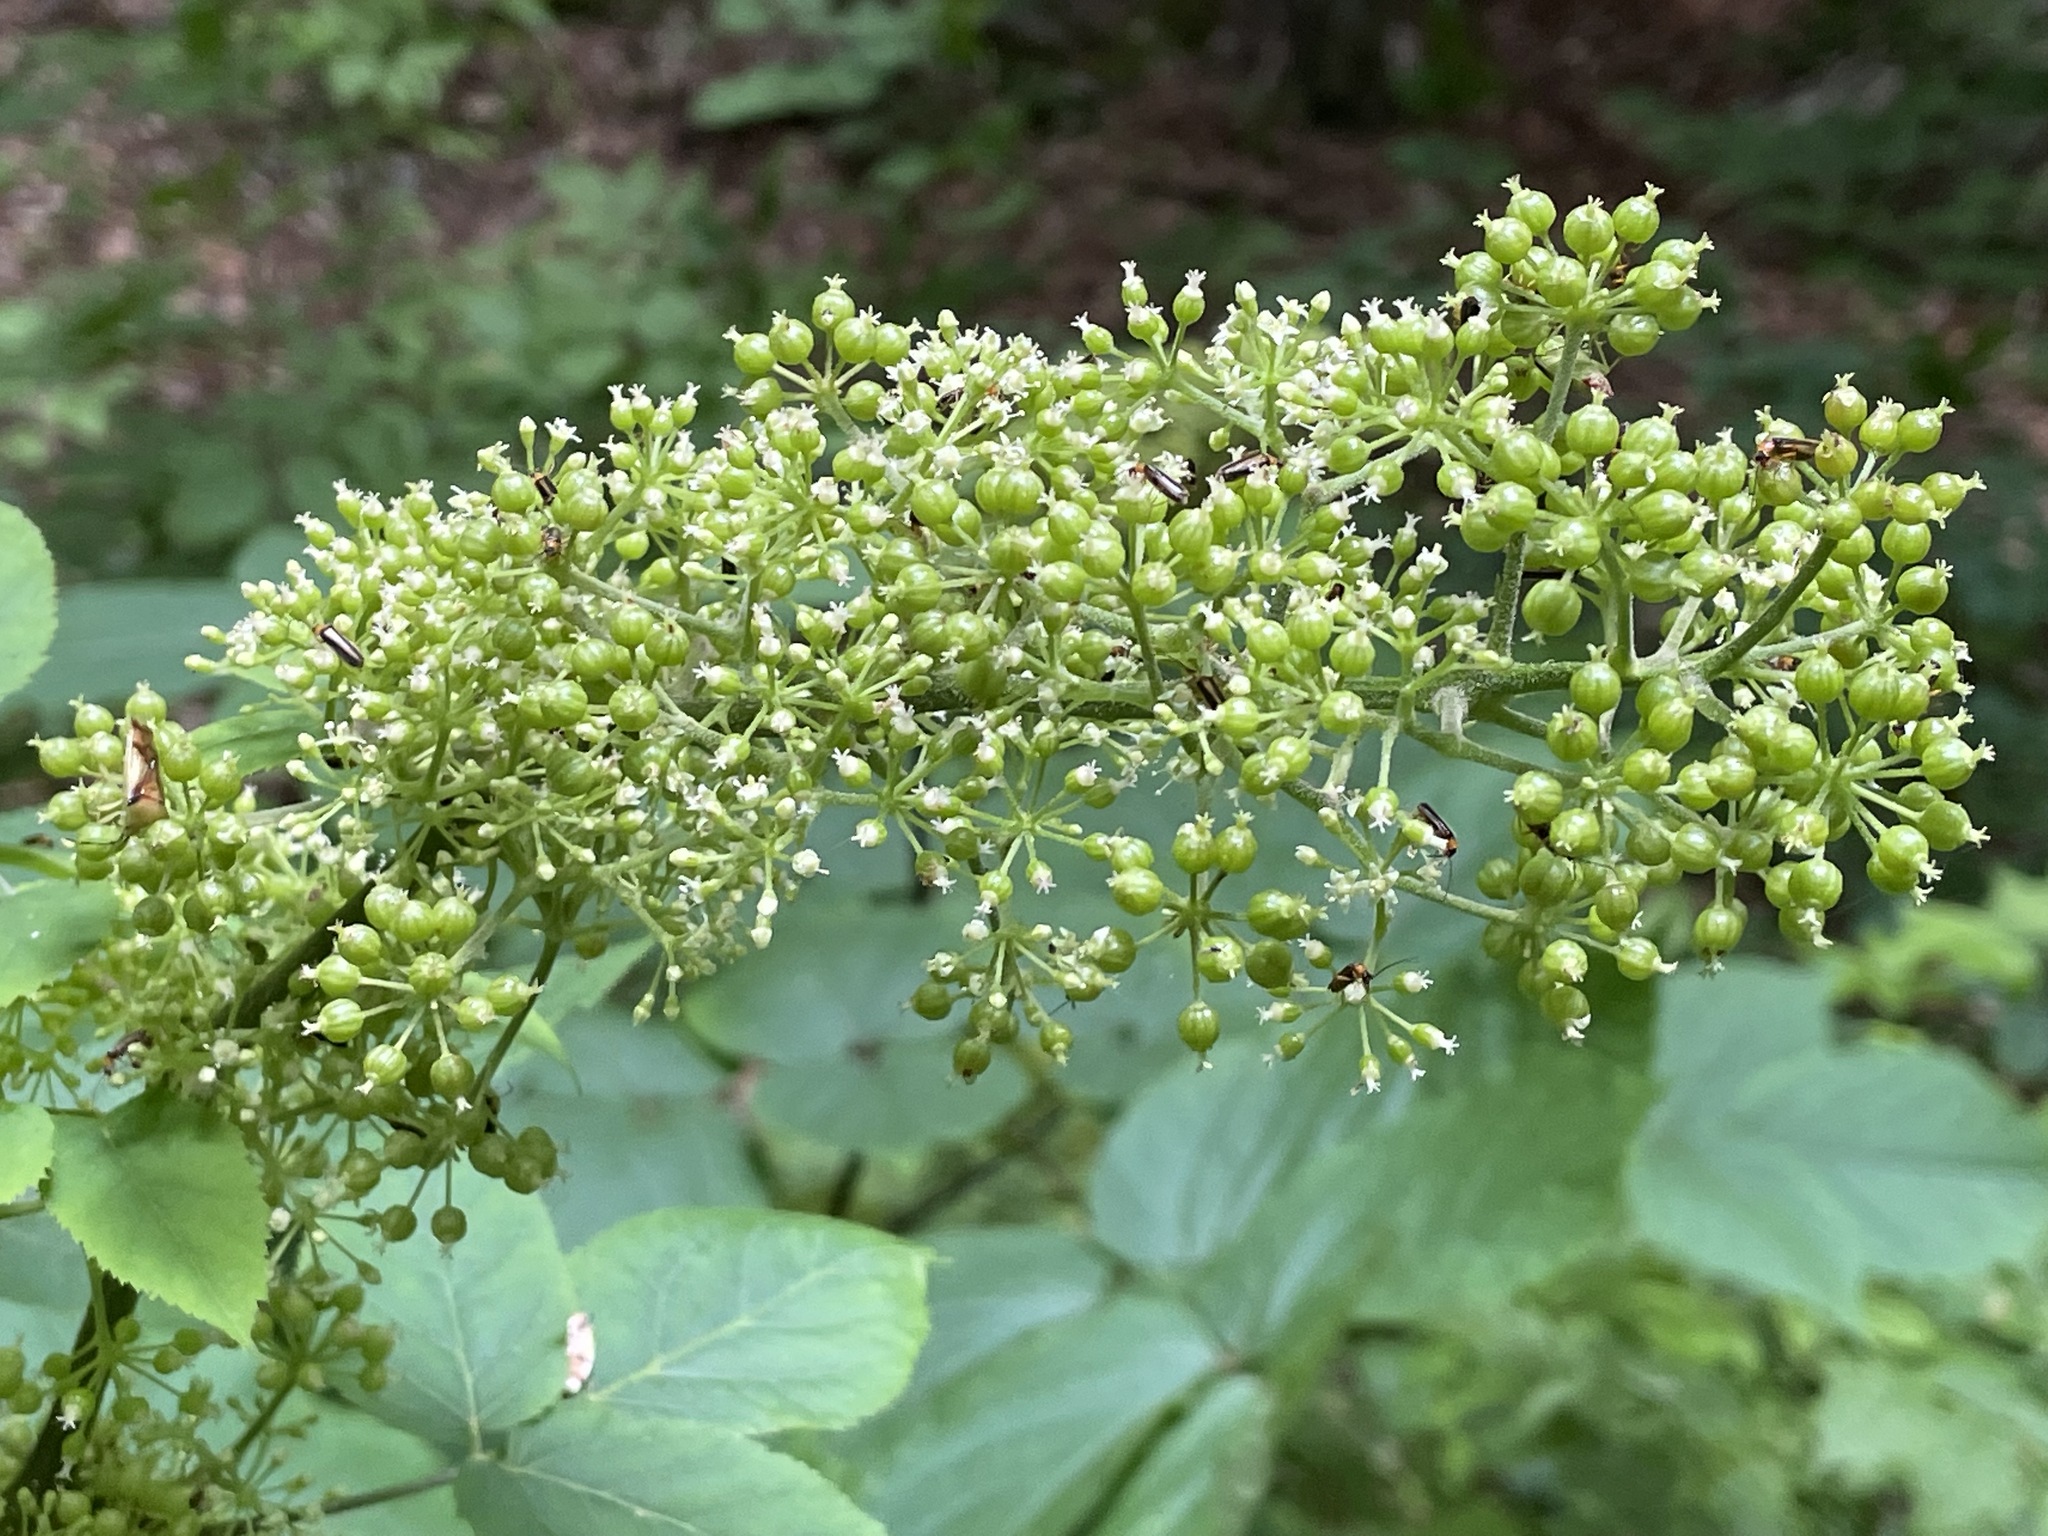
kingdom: Plantae
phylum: Tracheophyta
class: Magnoliopsida
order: Apiales
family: Araliaceae
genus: Aralia
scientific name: Aralia racemosa
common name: American-spikenard
